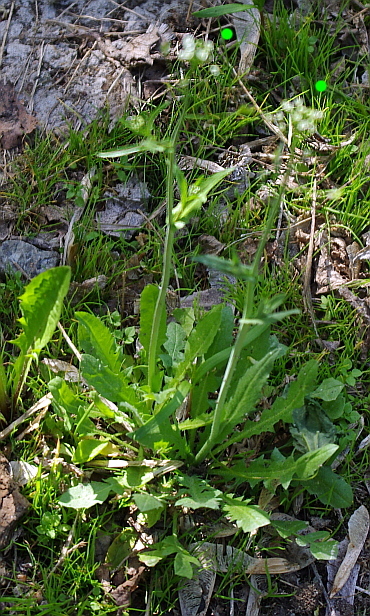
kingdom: Plantae
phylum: Tracheophyta
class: Magnoliopsida
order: Brassicales
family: Brassicaceae
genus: Capsella
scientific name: Capsella bursa-pastoris
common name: Shepherd's purse
